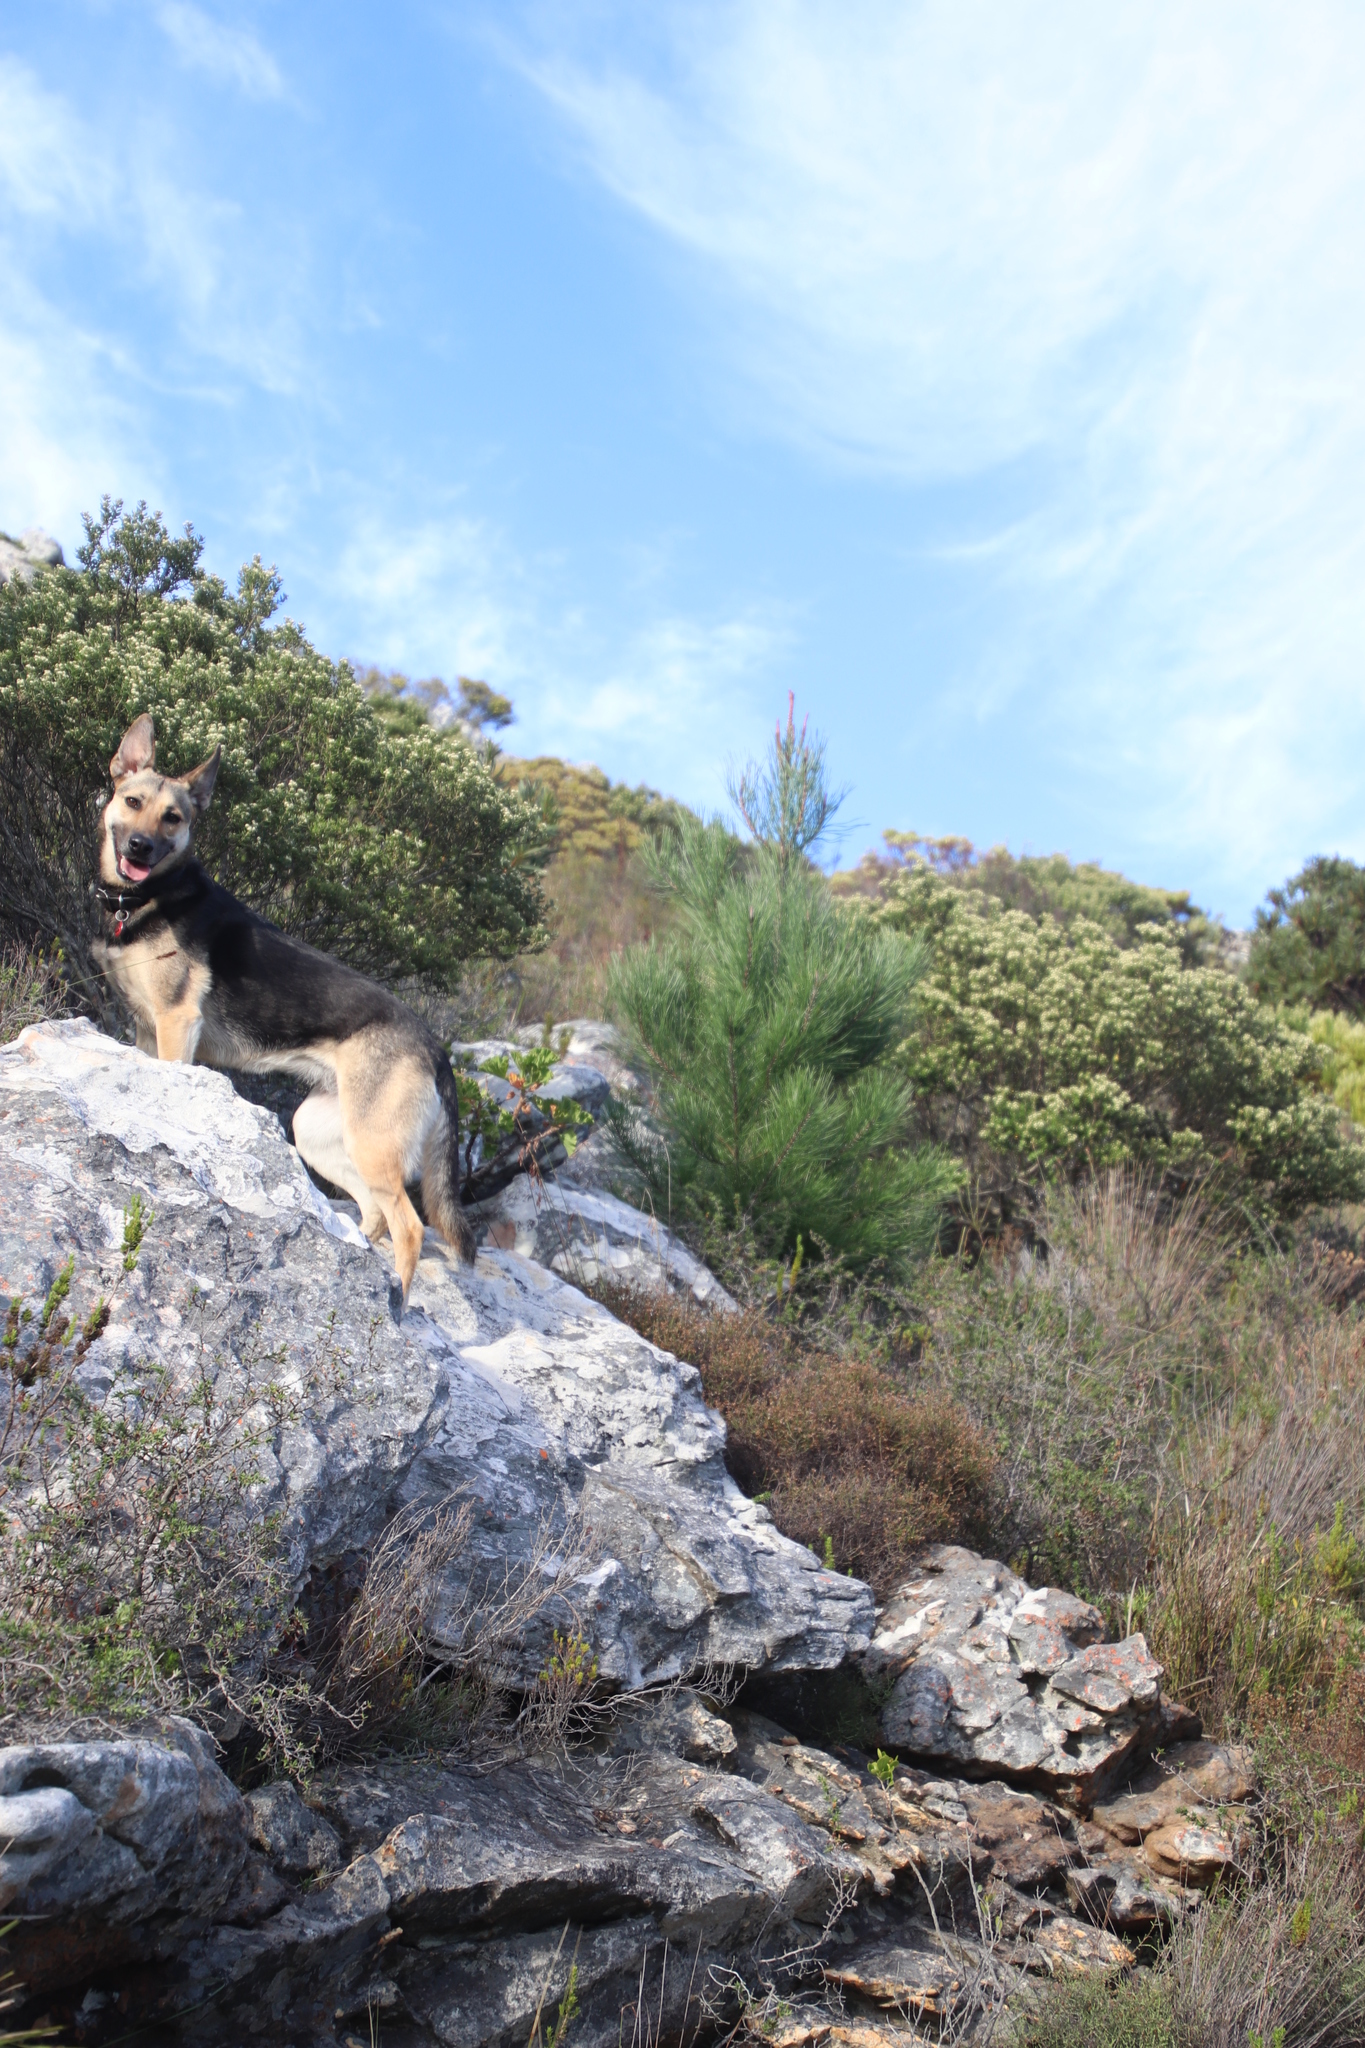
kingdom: Plantae
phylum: Tracheophyta
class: Pinopsida
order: Pinales
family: Pinaceae
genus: Pinus
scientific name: Pinus pinaster
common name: Maritime pine
